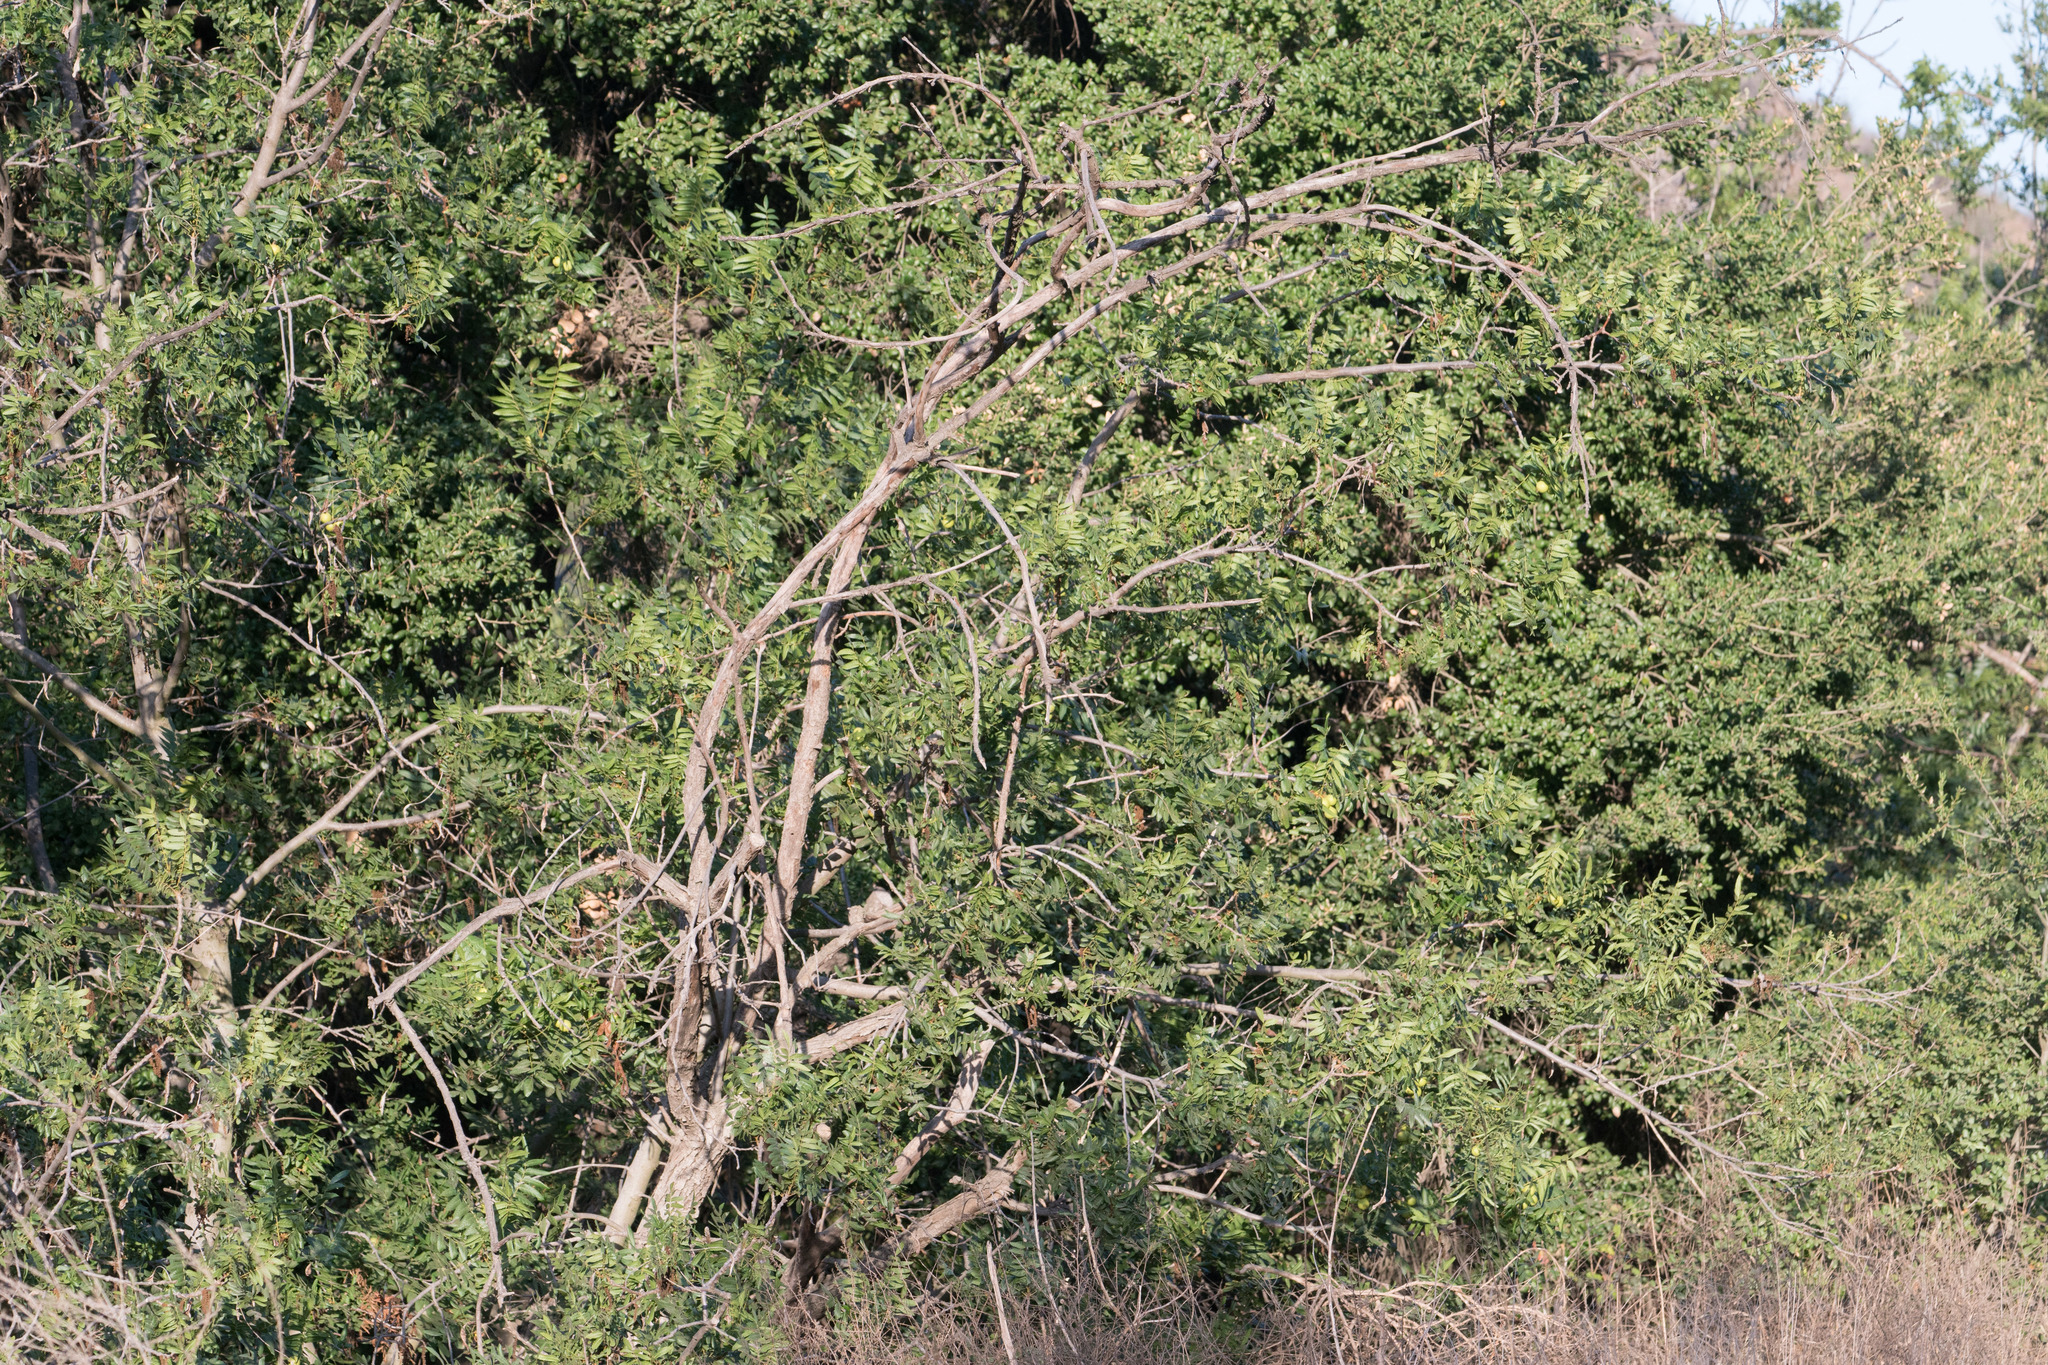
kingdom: Plantae
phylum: Tracheophyta
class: Magnoliopsida
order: Fagales
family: Juglandaceae
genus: Juglans
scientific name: Juglans californica
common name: Southern california black walnut
